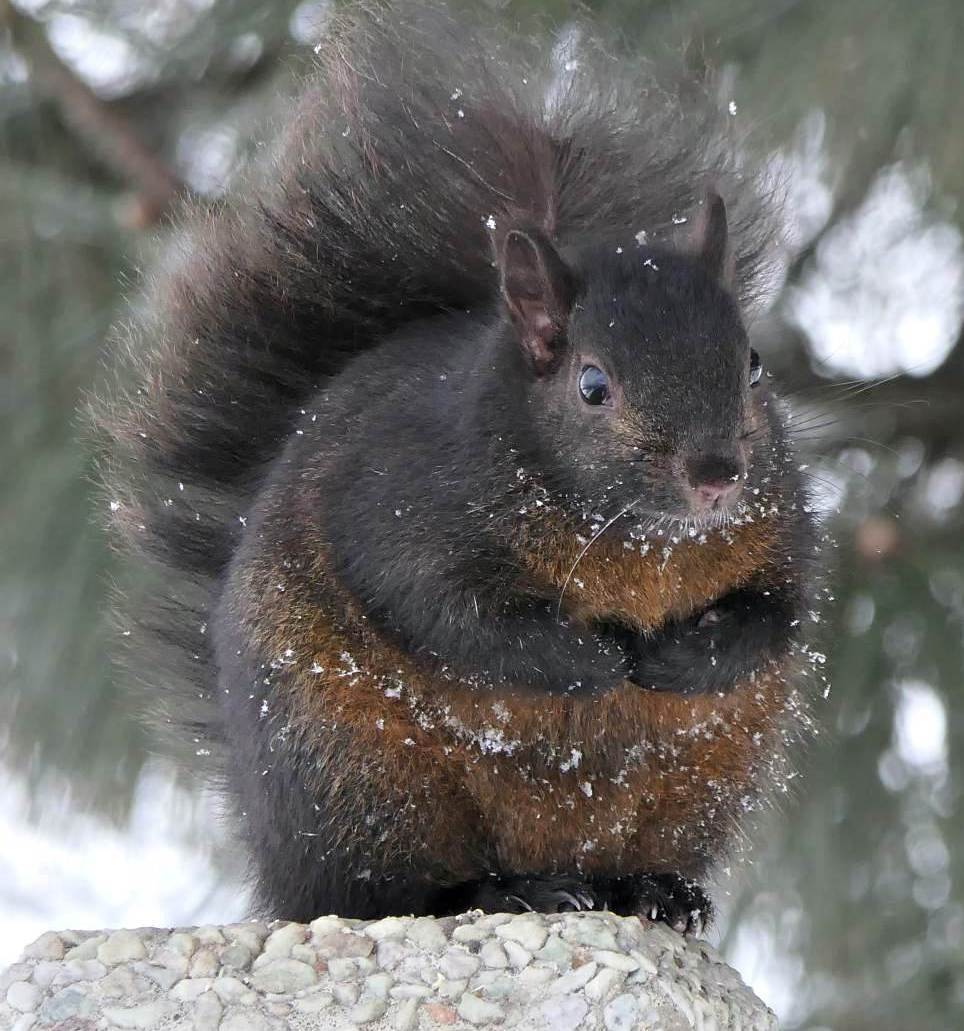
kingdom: Animalia
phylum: Chordata
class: Mammalia
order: Rodentia
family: Sciuridae
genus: Sciurus
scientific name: Sciurus carolinensis
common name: Eastern gray squirrel
